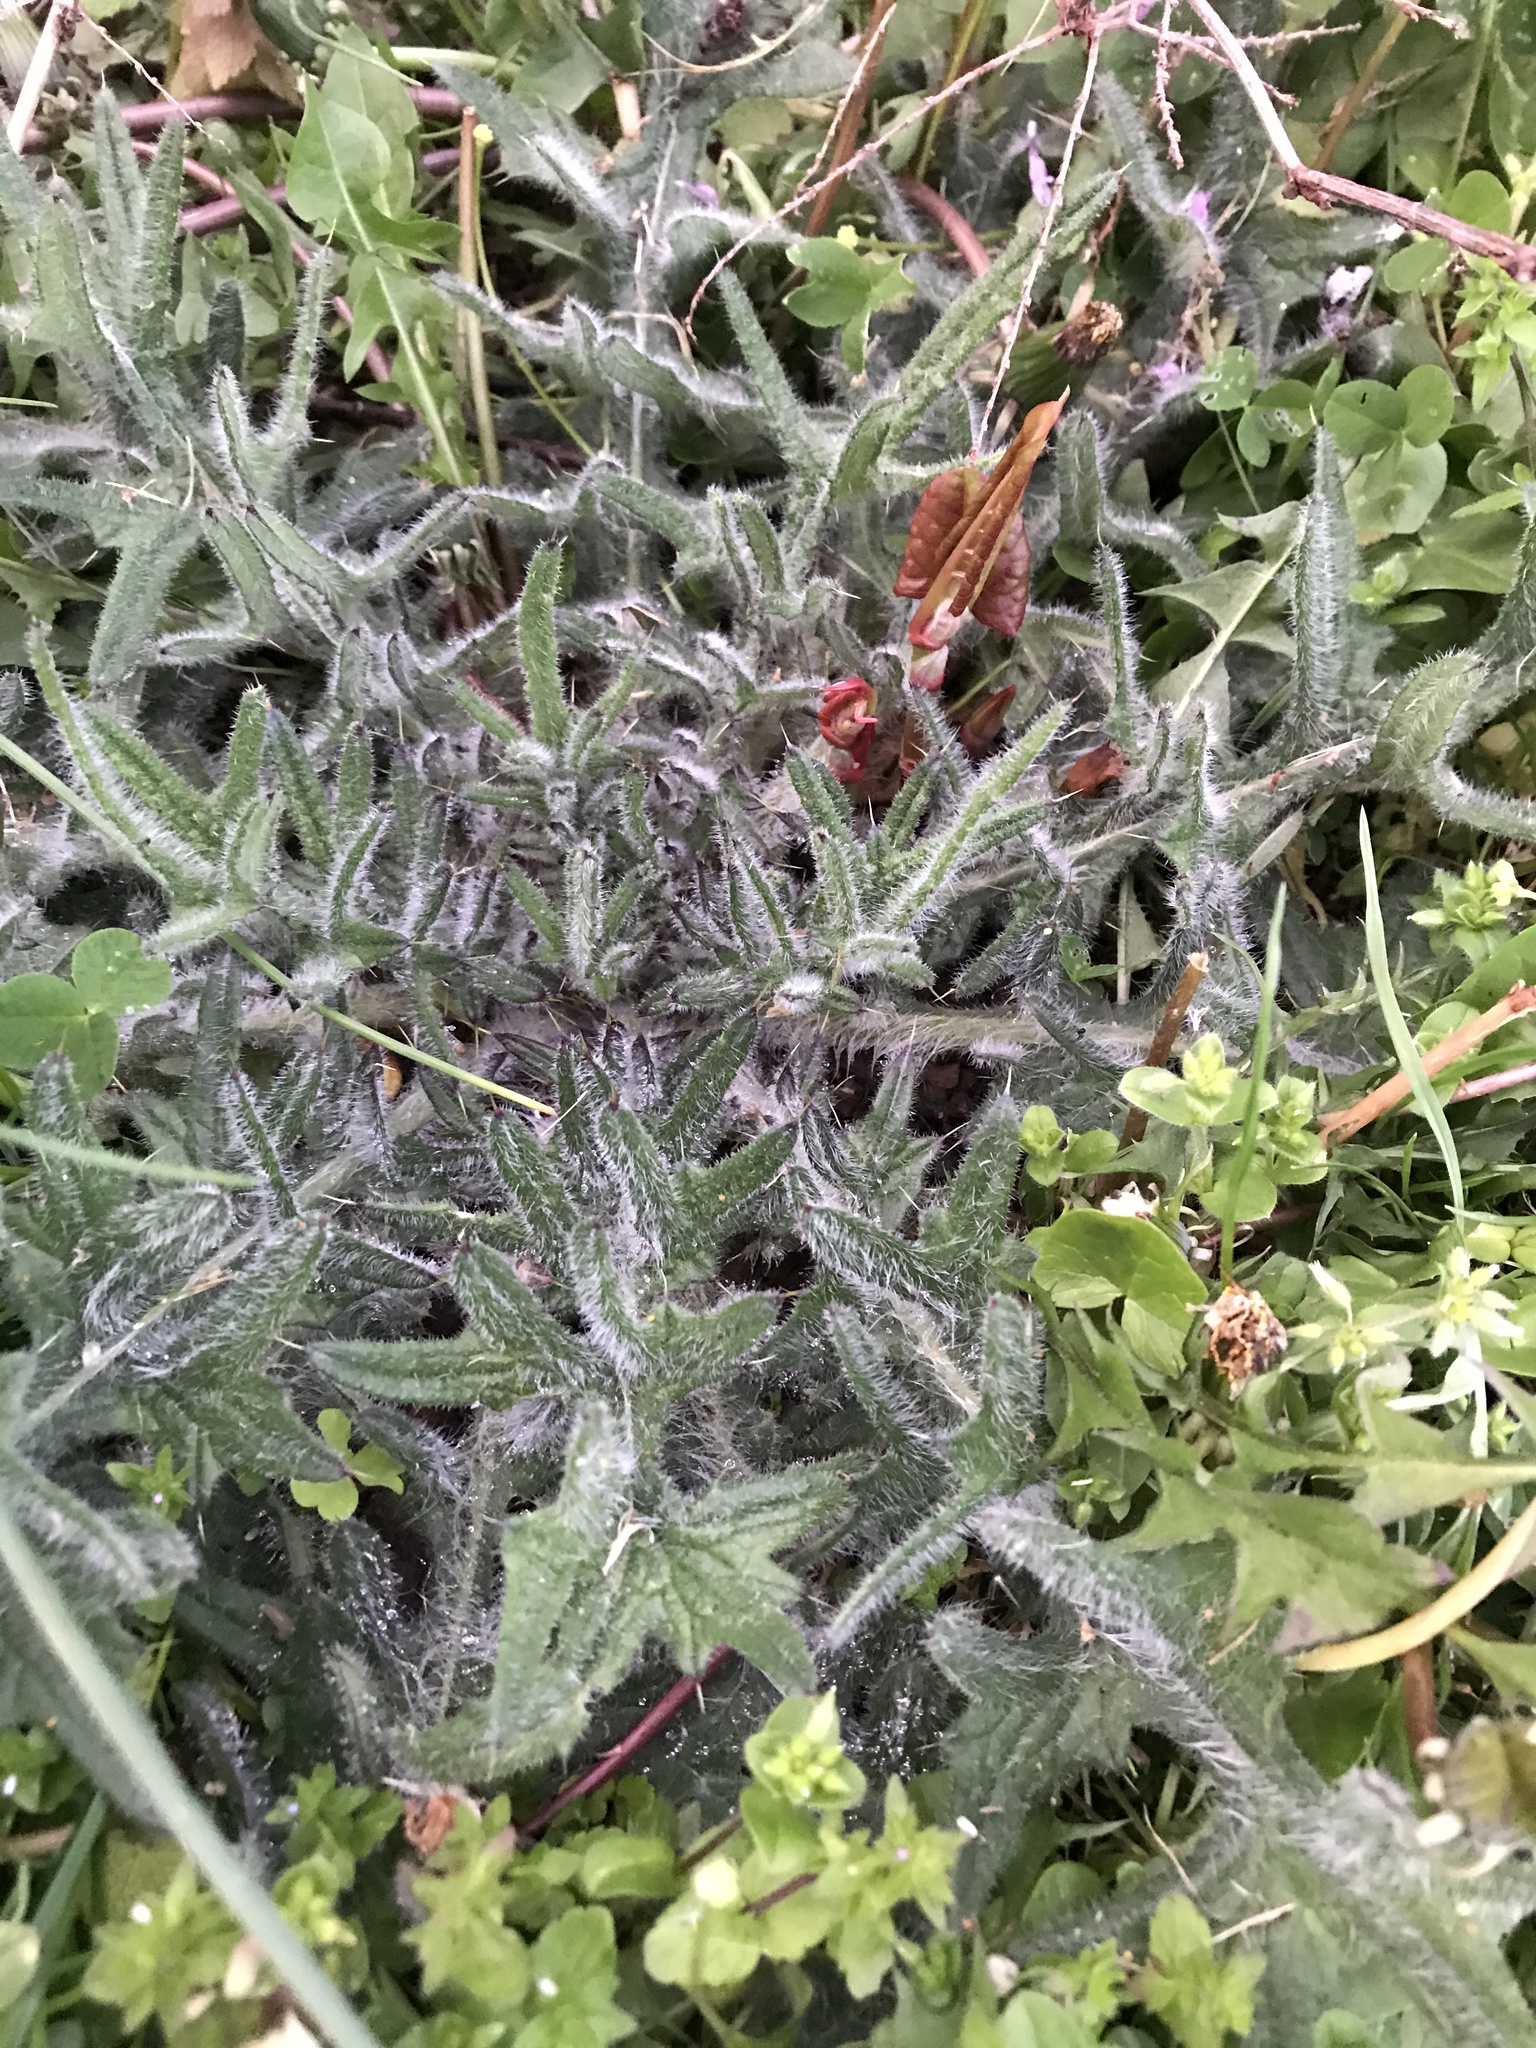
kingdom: Plantae
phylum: Tracheophyta
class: Magnoliopsida
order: Asterales
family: Asteraceae
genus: Cirsium
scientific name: Cirsium vulgare
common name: Bull thistle
